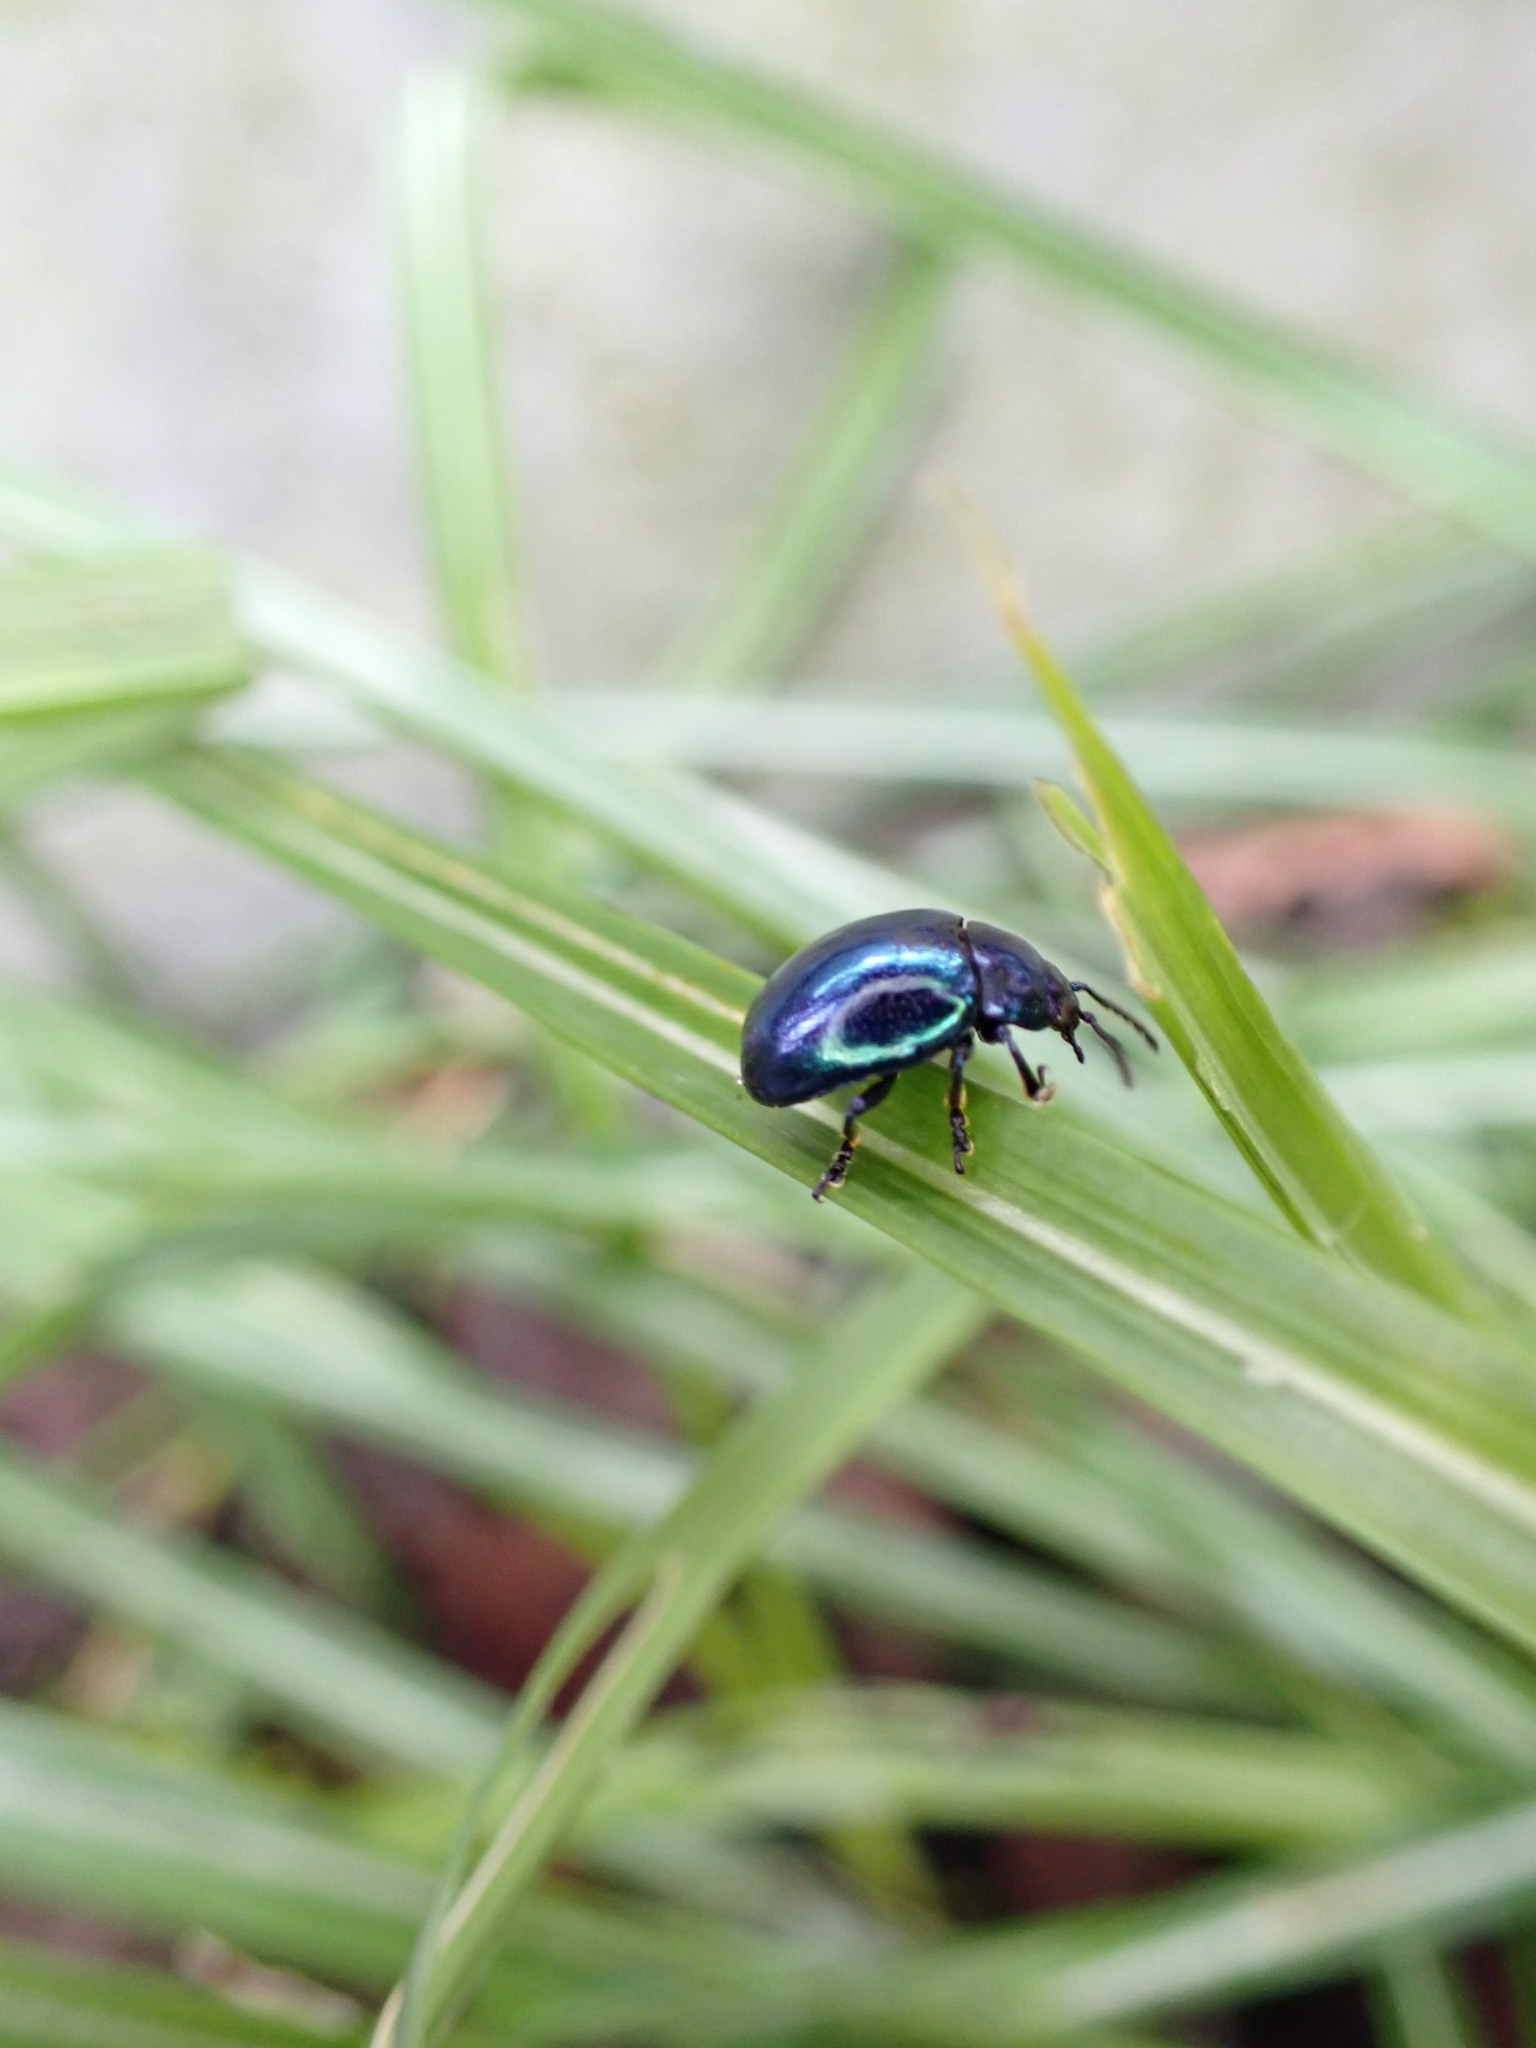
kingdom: Animalia
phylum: Arthropoda
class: Insecta
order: Coleoptera
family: Chrysomelidae
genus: Chrysolina
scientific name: Chrysolina coerulans
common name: Blue mint beetle
